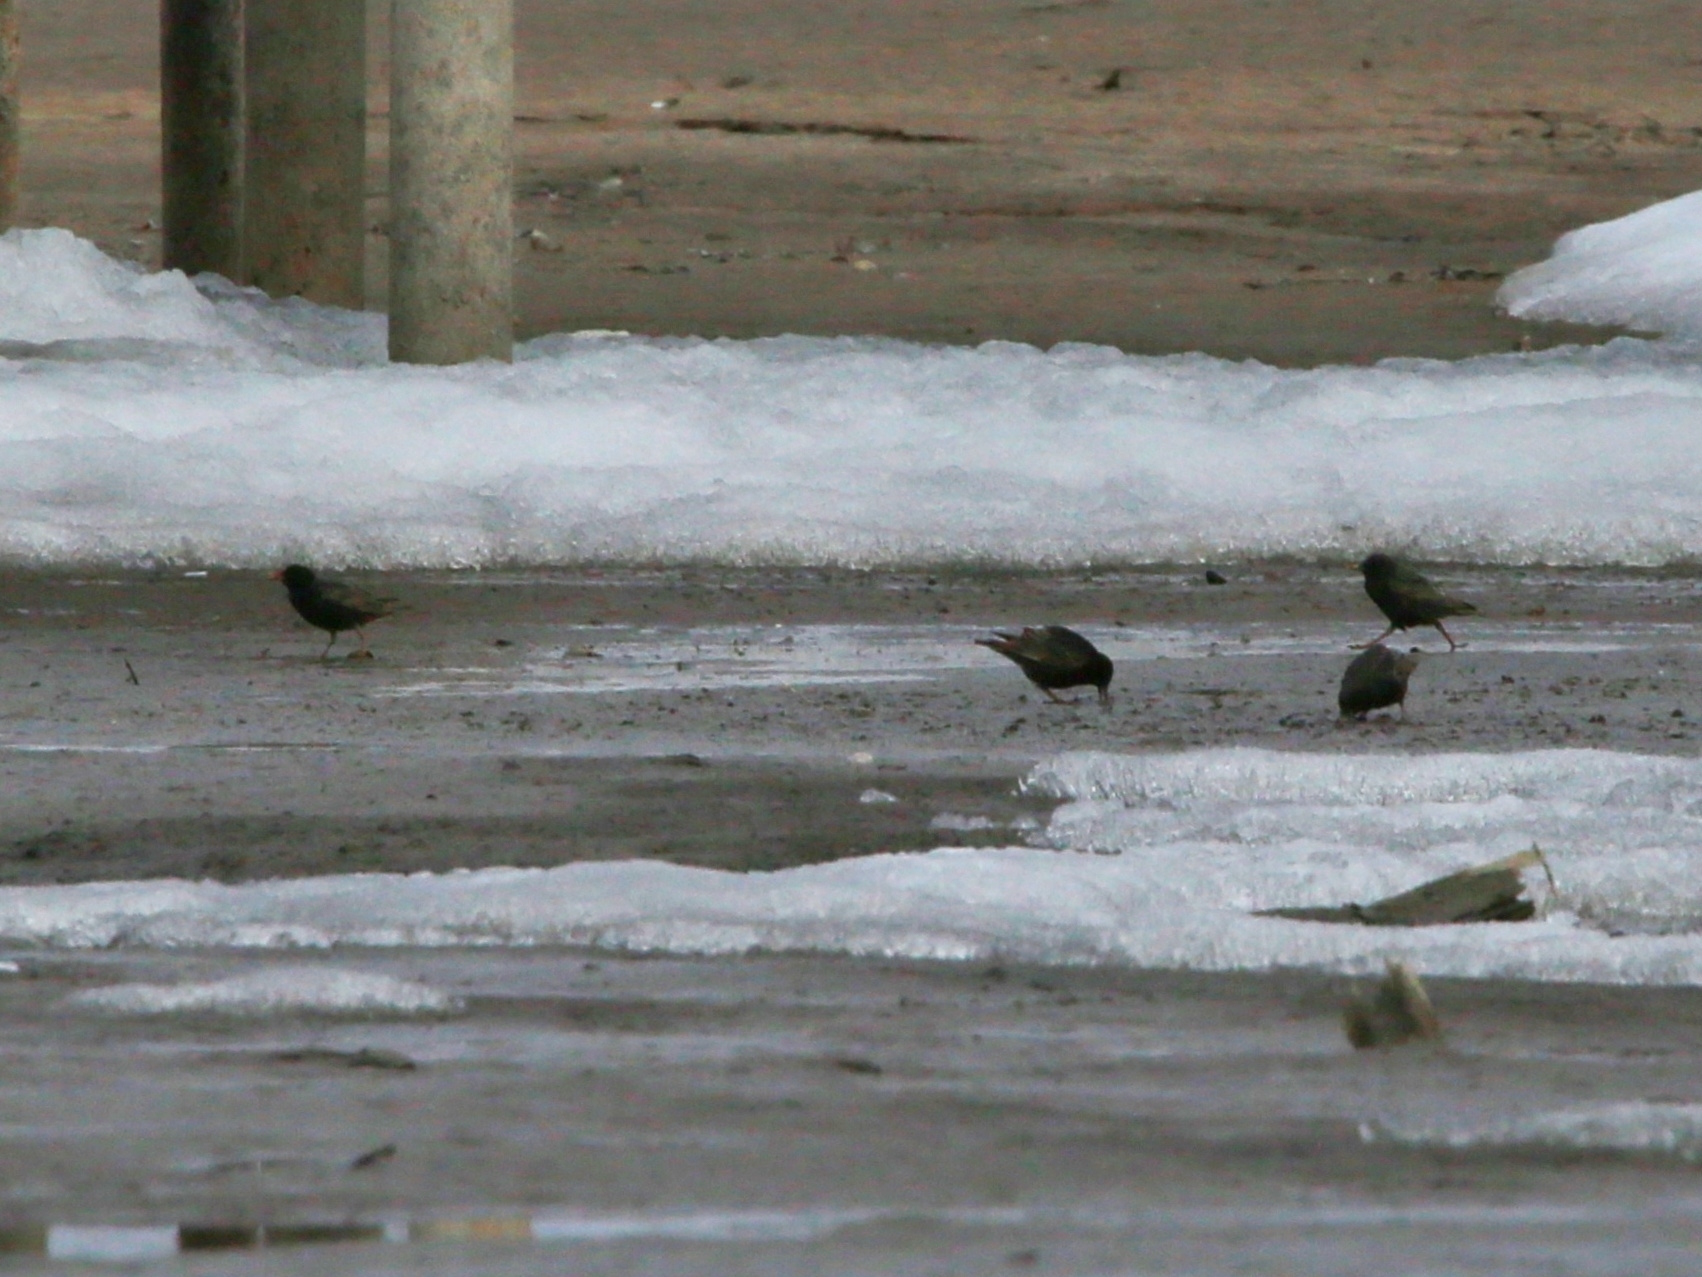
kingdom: Animalia
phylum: Chordata
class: Aves
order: Passeriformes
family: Sturnidae
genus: Sturnus
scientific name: Sturnus vulgaris
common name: Common starling
